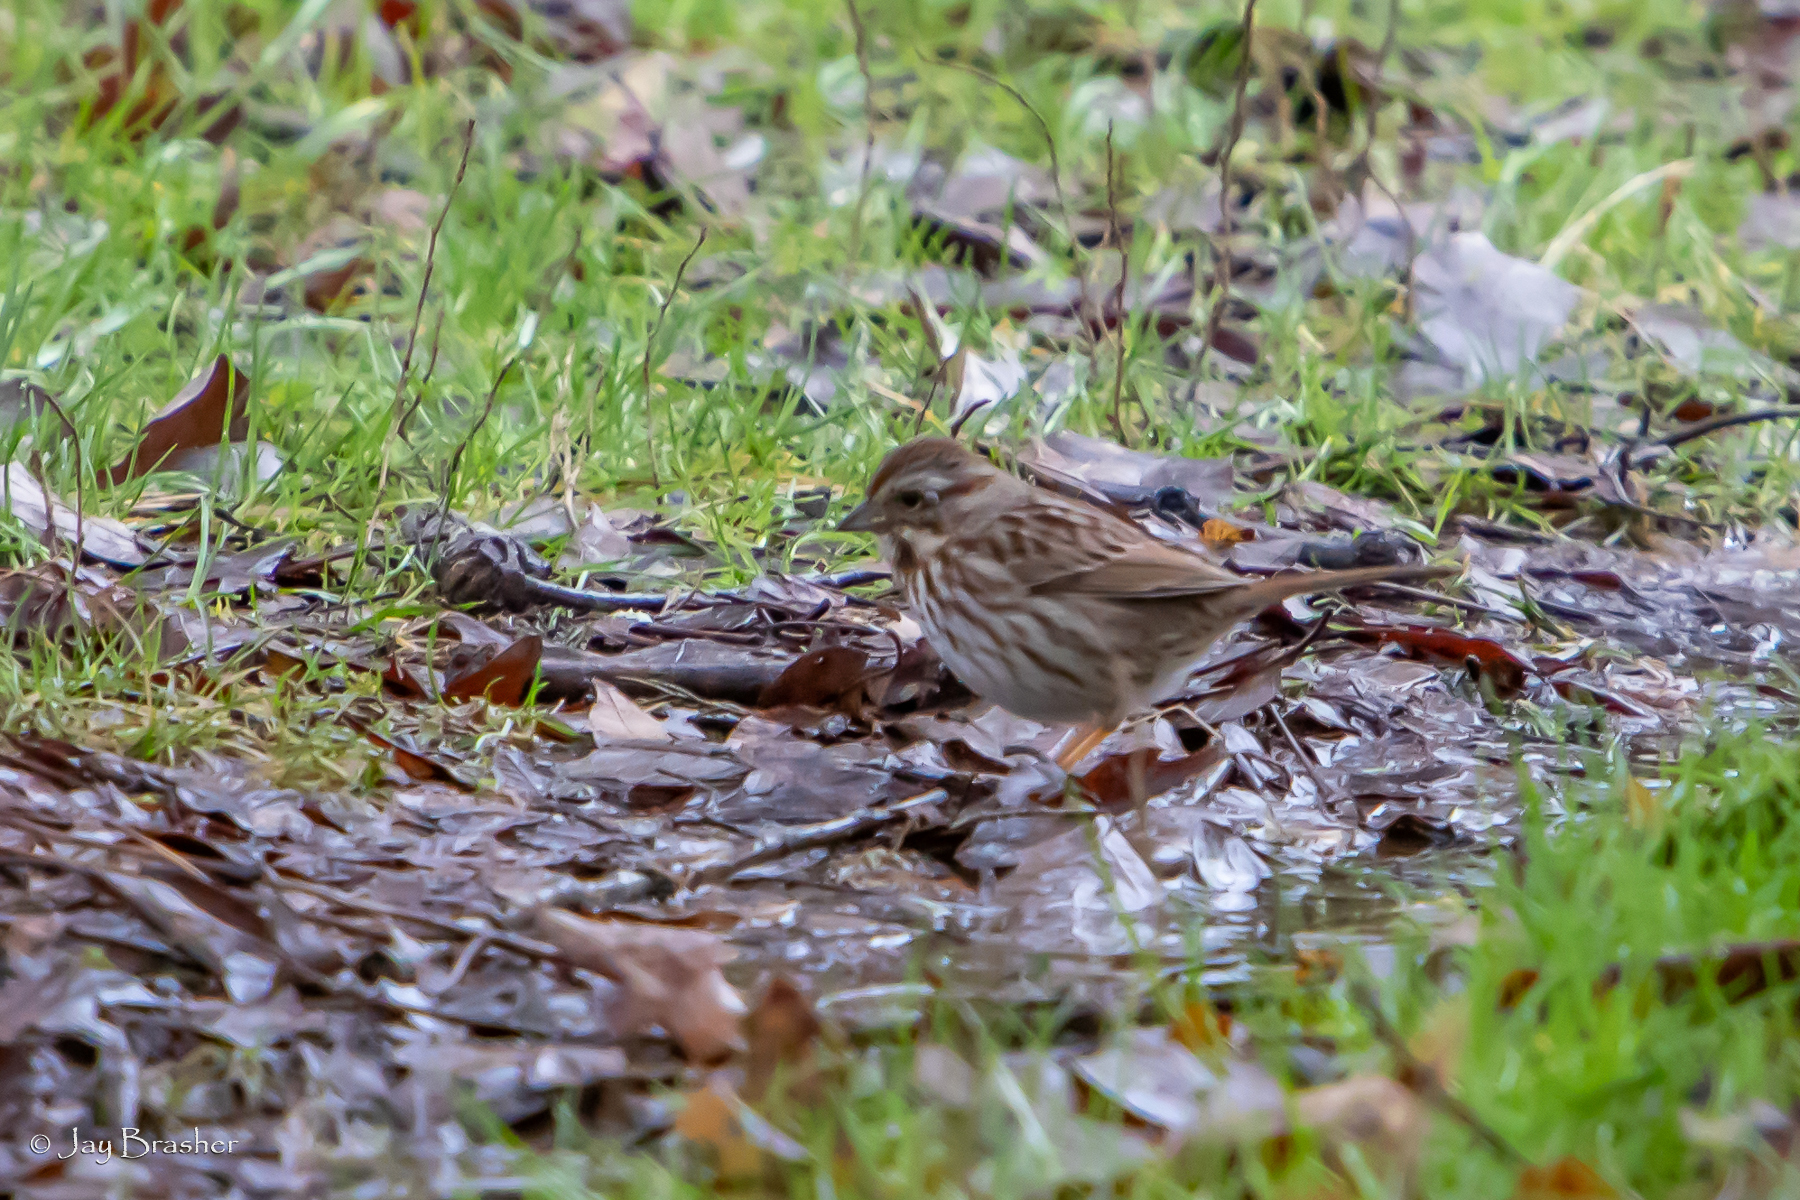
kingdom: Animalia
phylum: Chordata
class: Aves
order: Passeriformes
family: Passerellidae
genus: Melospiza
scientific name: Melospiza melodia
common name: Song sparrow
